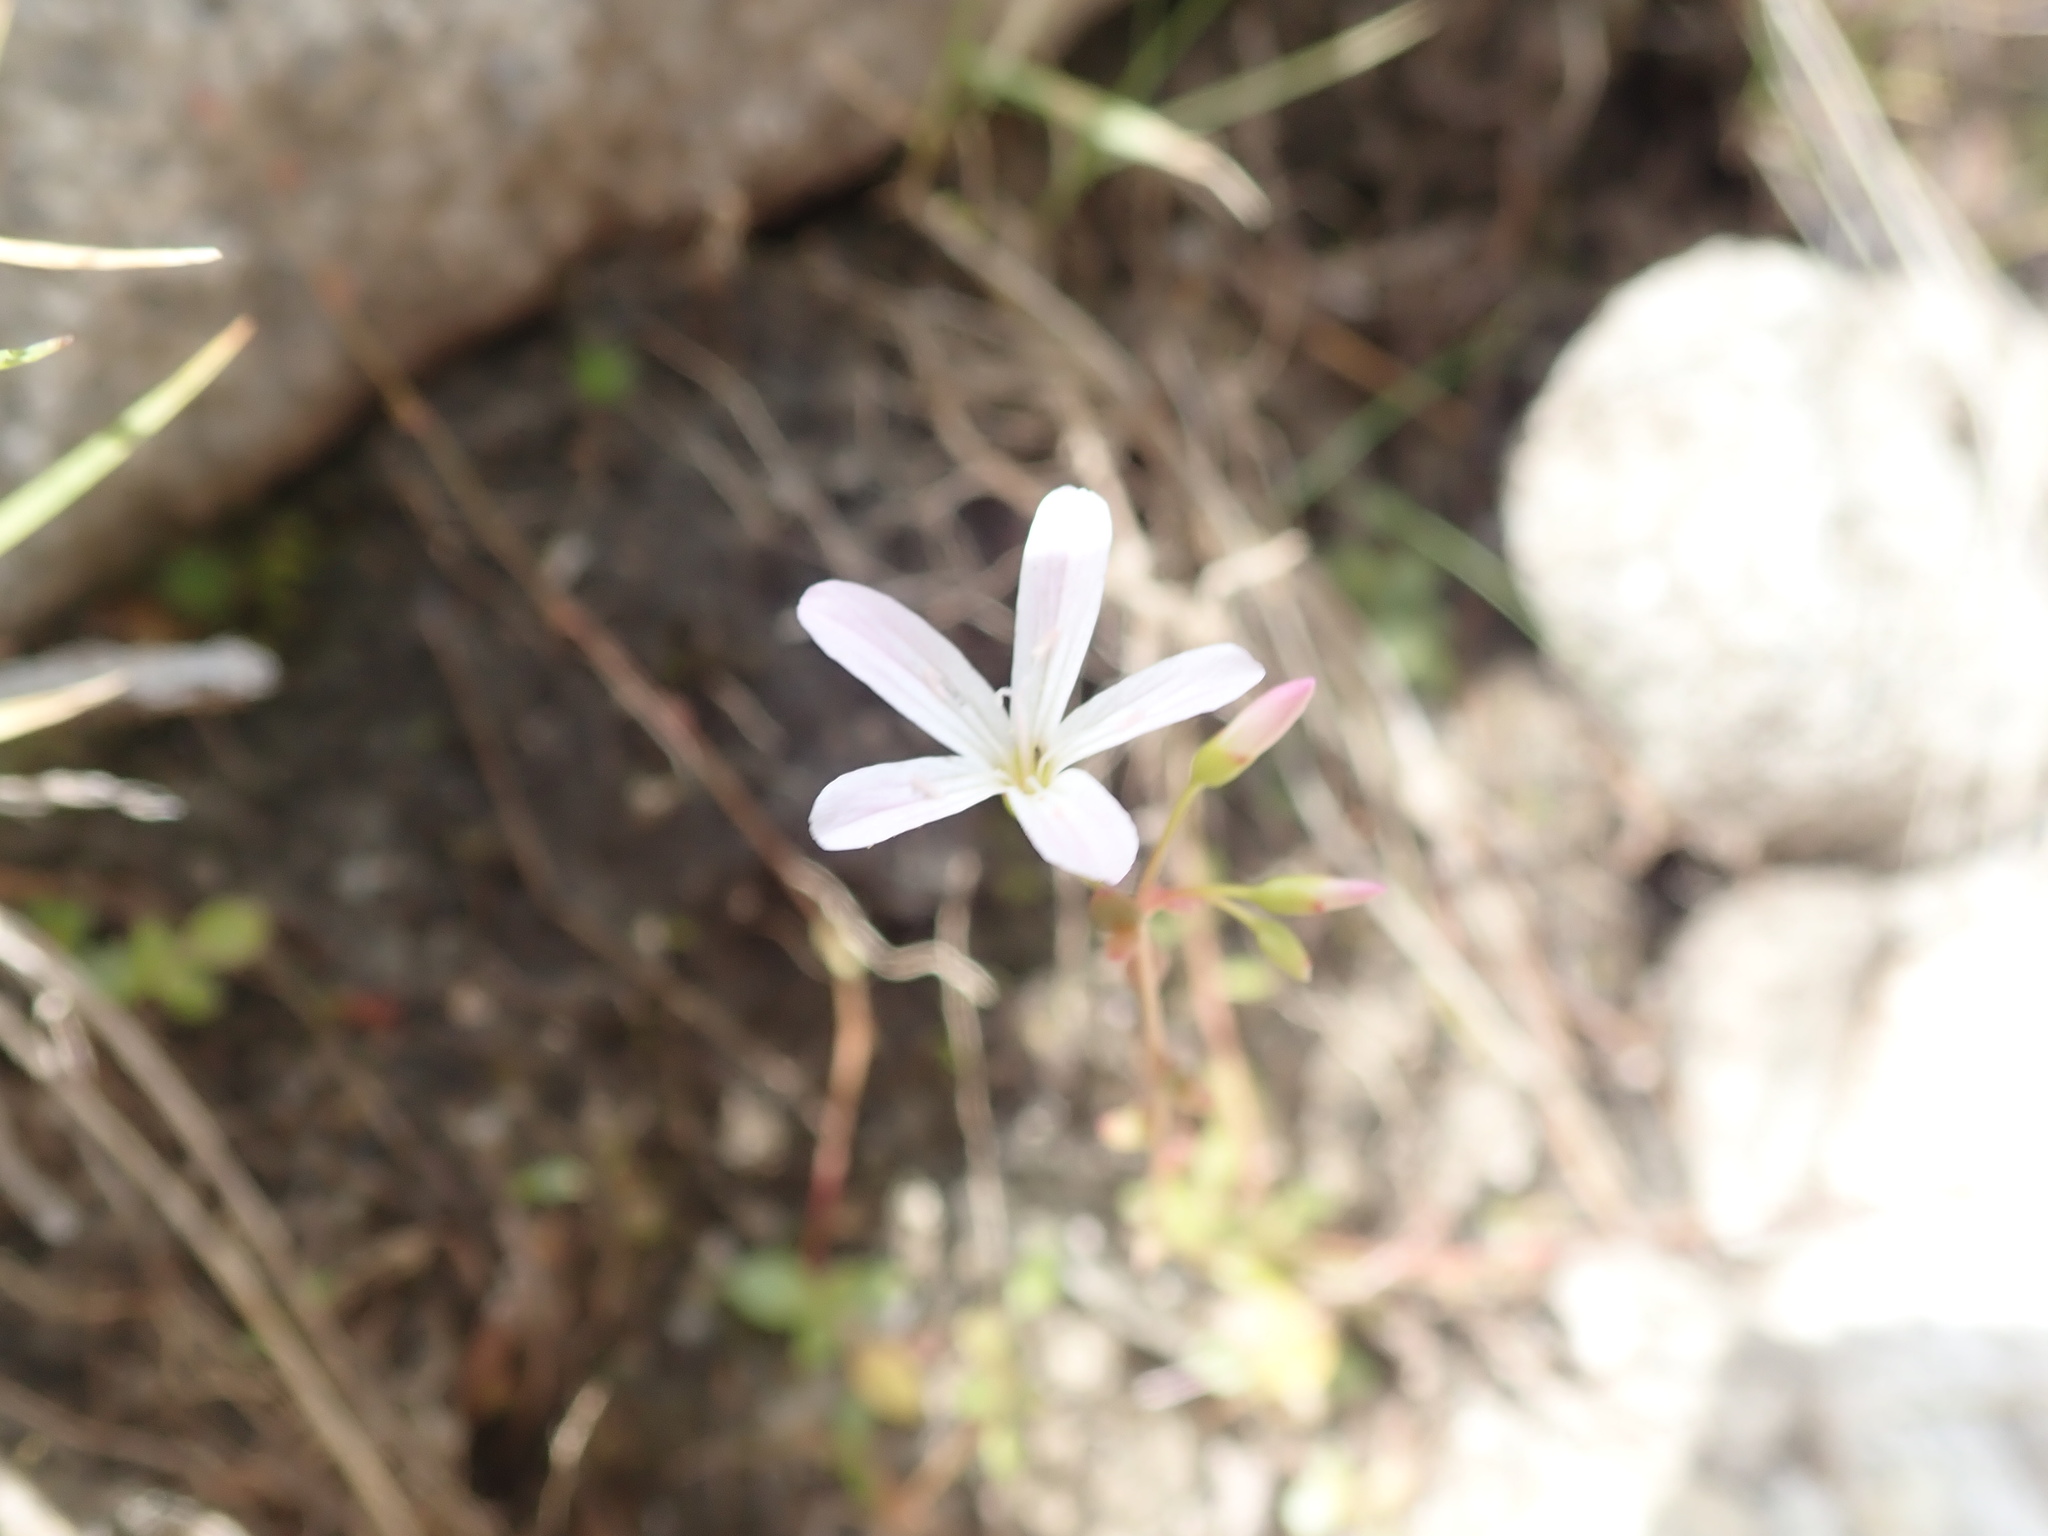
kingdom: Plantae
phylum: Tracheophyta
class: Magnoliopsida
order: Caryophyllales
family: Montiaceae
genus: Montia
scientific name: Montia parvifolia
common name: Small-leaved blinks
